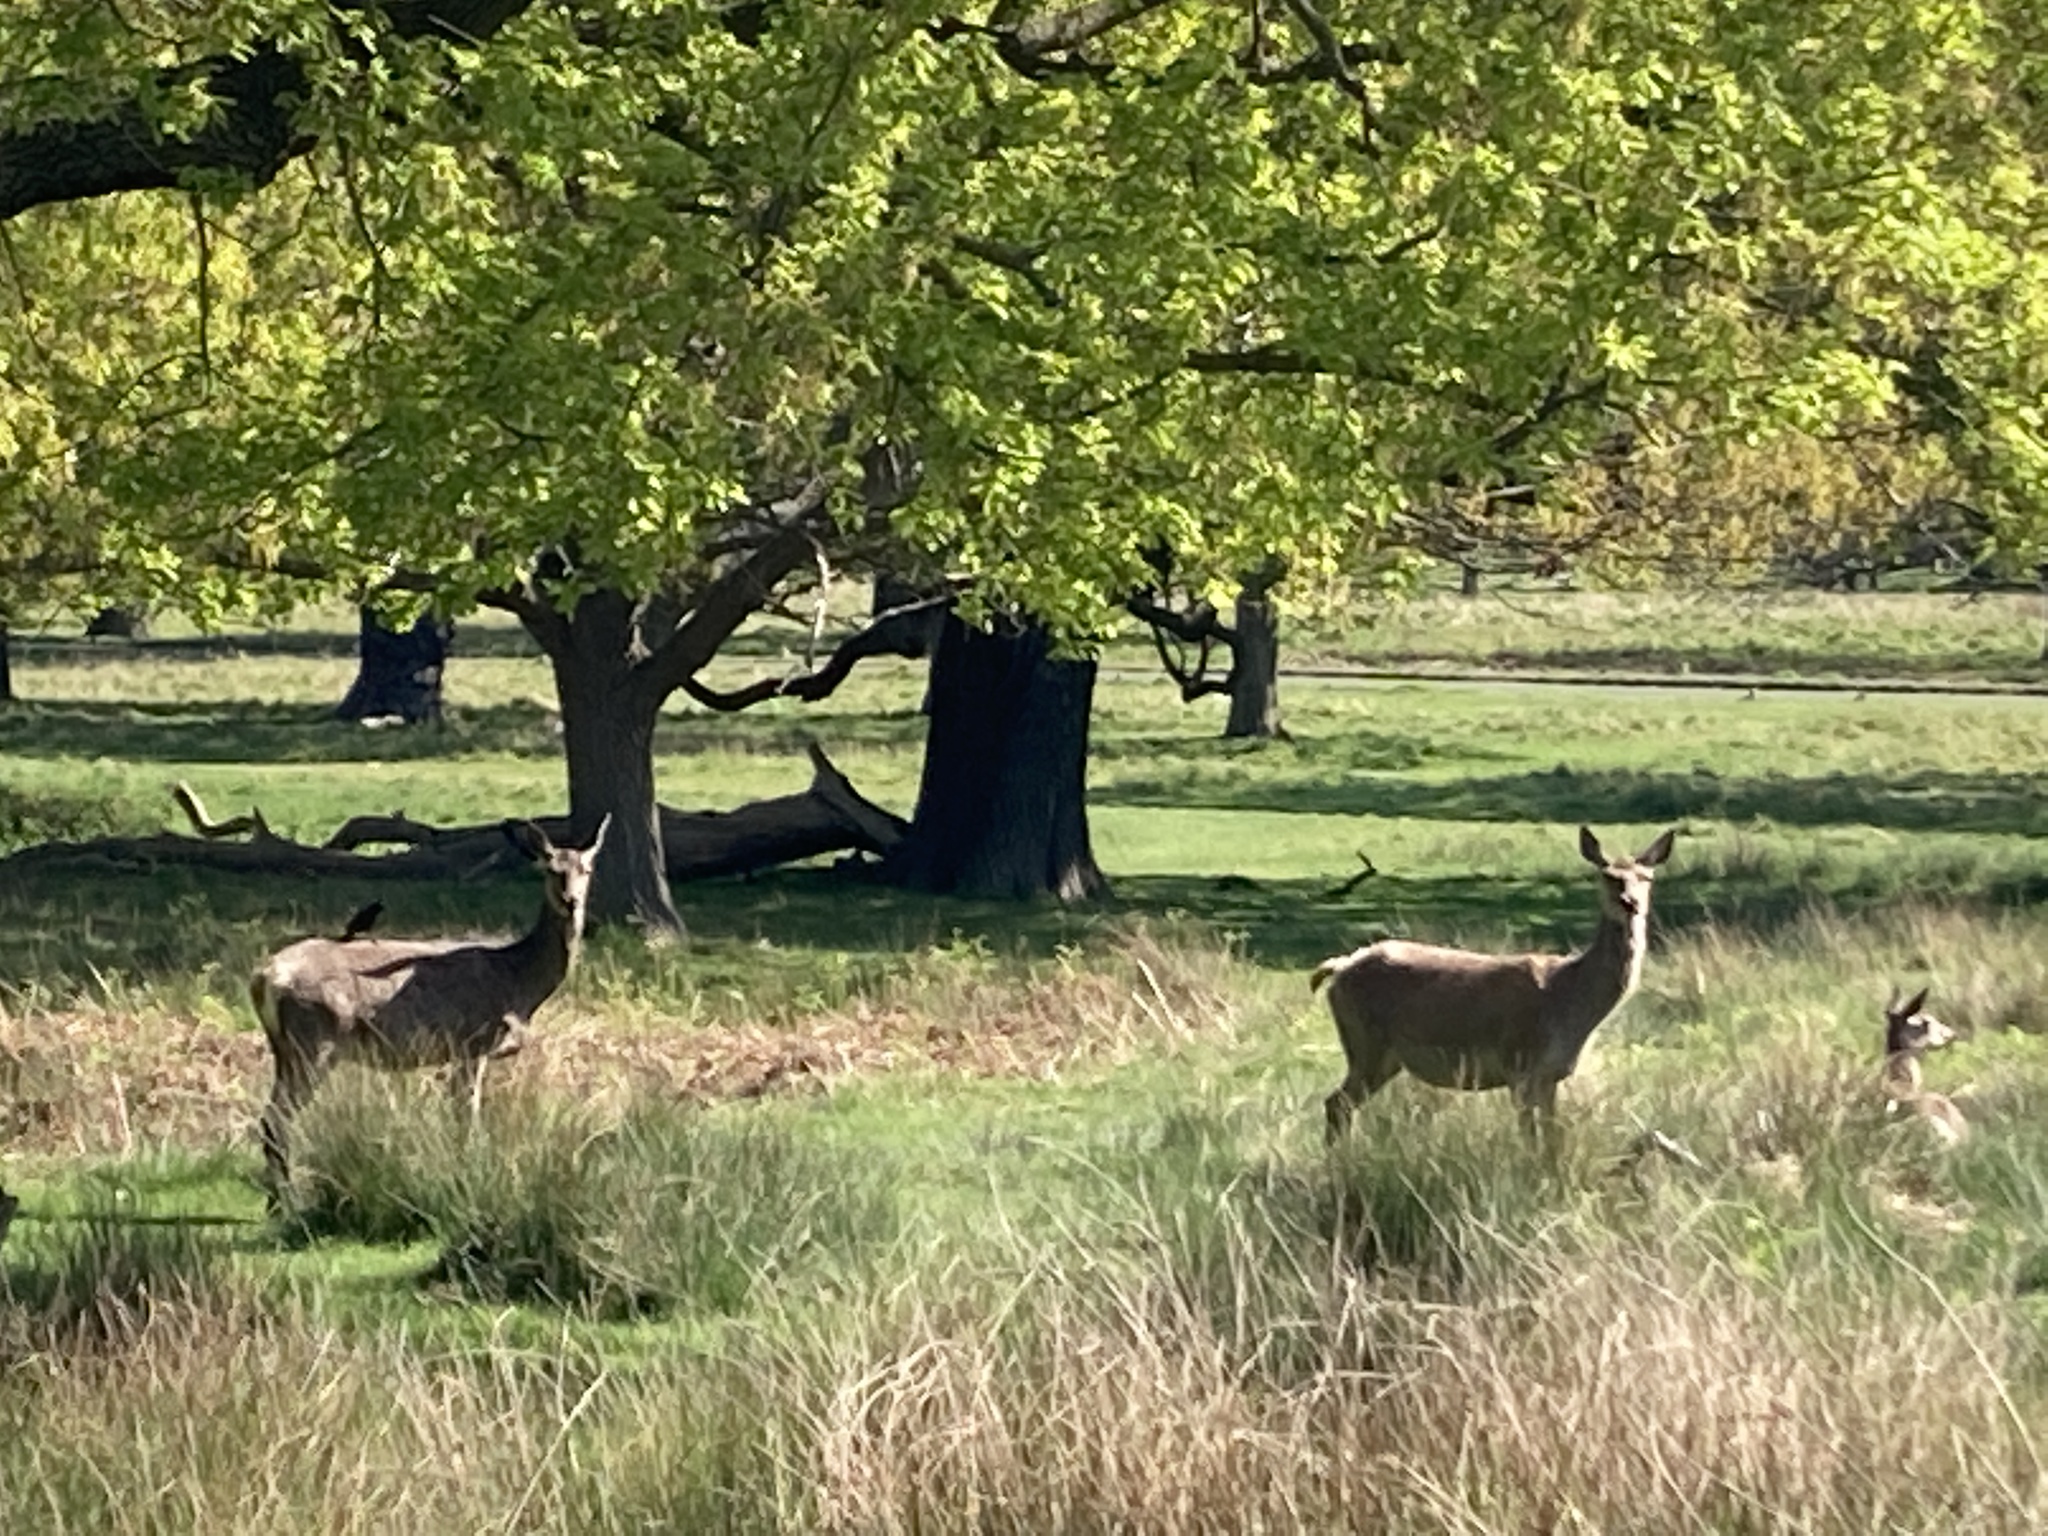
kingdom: Animalia
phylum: Chordata
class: Mammalia
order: Artiodactyla
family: Cervidae
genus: Cervus
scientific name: Cervus elaphus
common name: Red deer
